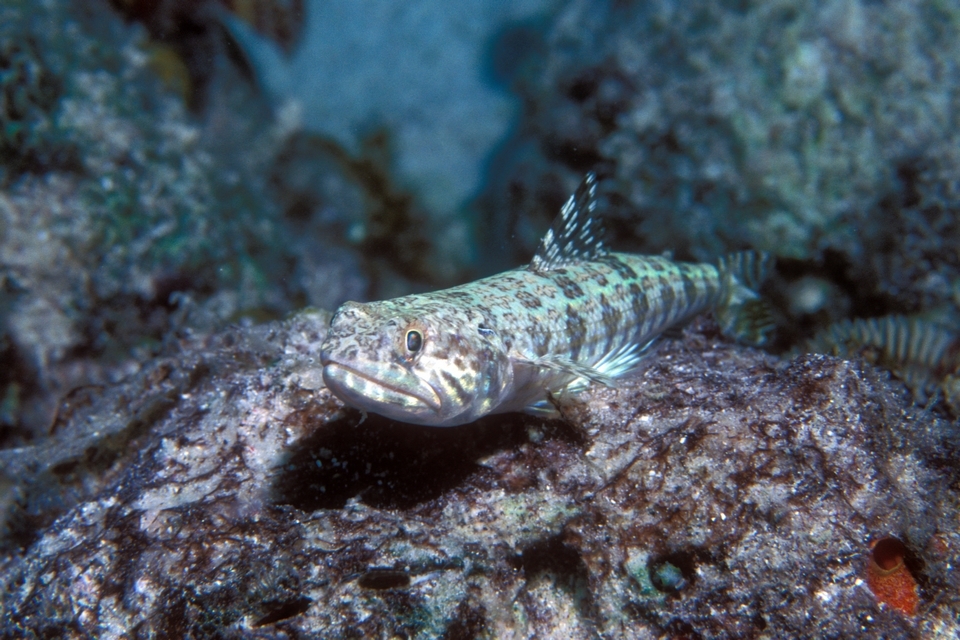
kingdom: Animalia
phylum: Chordata
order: Aulopiformes
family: Synodontidae
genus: Synodus
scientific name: Synodus intermedius
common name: Sand diver
